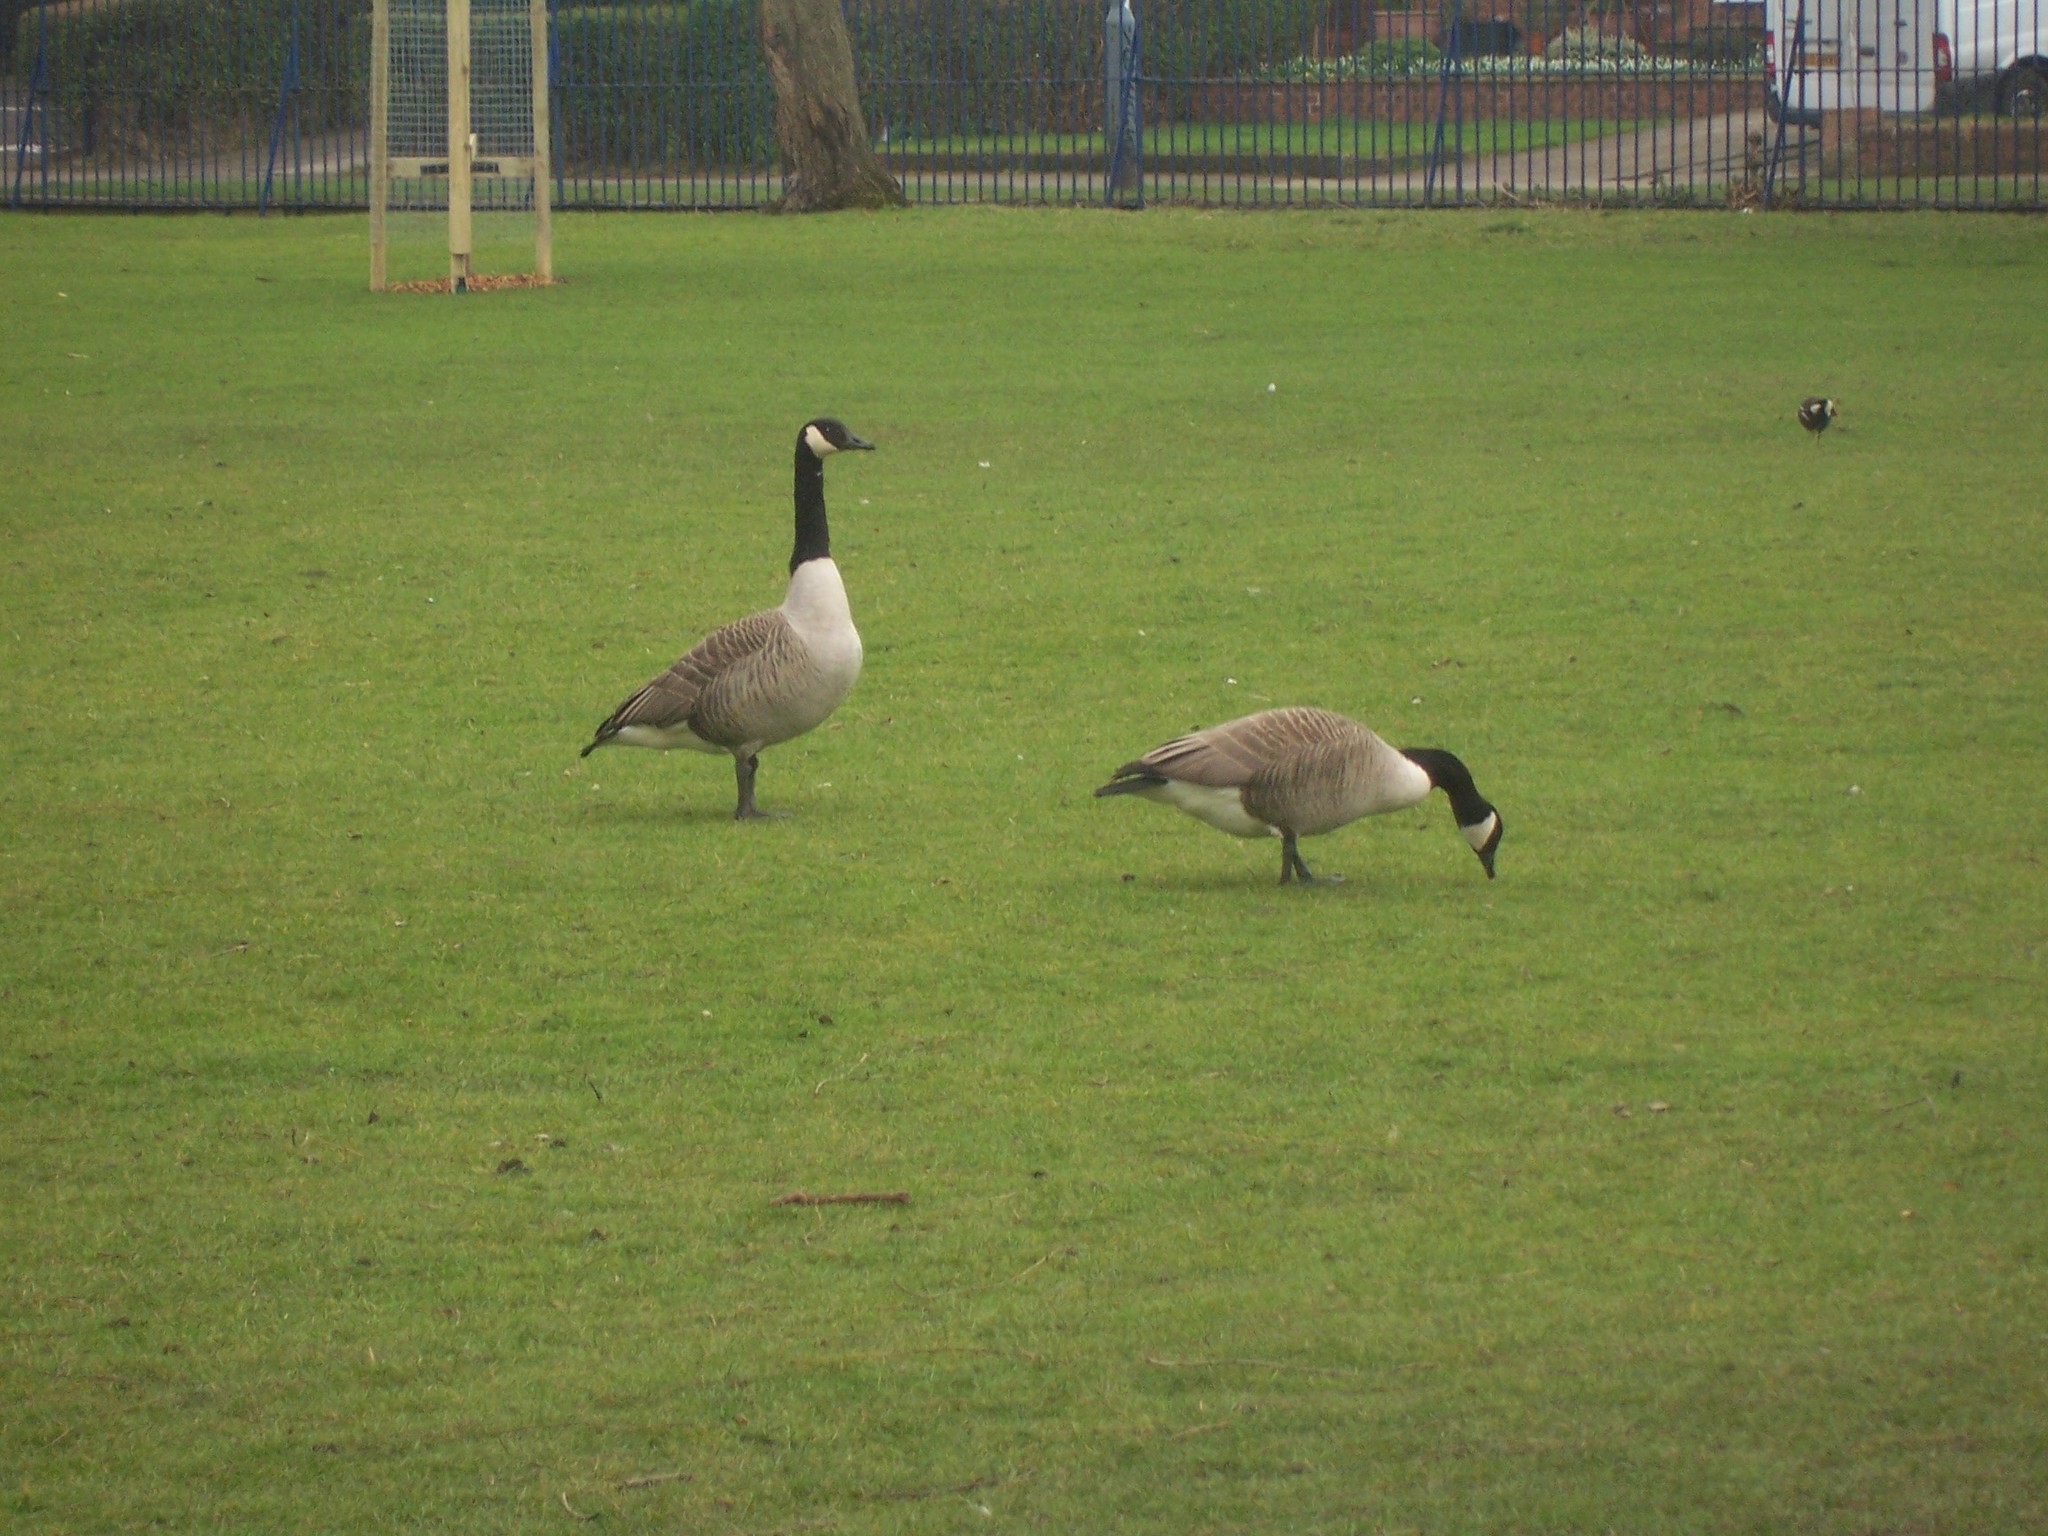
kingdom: Animalia
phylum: Chordata
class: Aves
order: Anseriformes
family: Anatidae
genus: Branta
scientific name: Branta canadensis
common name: Canada goose
